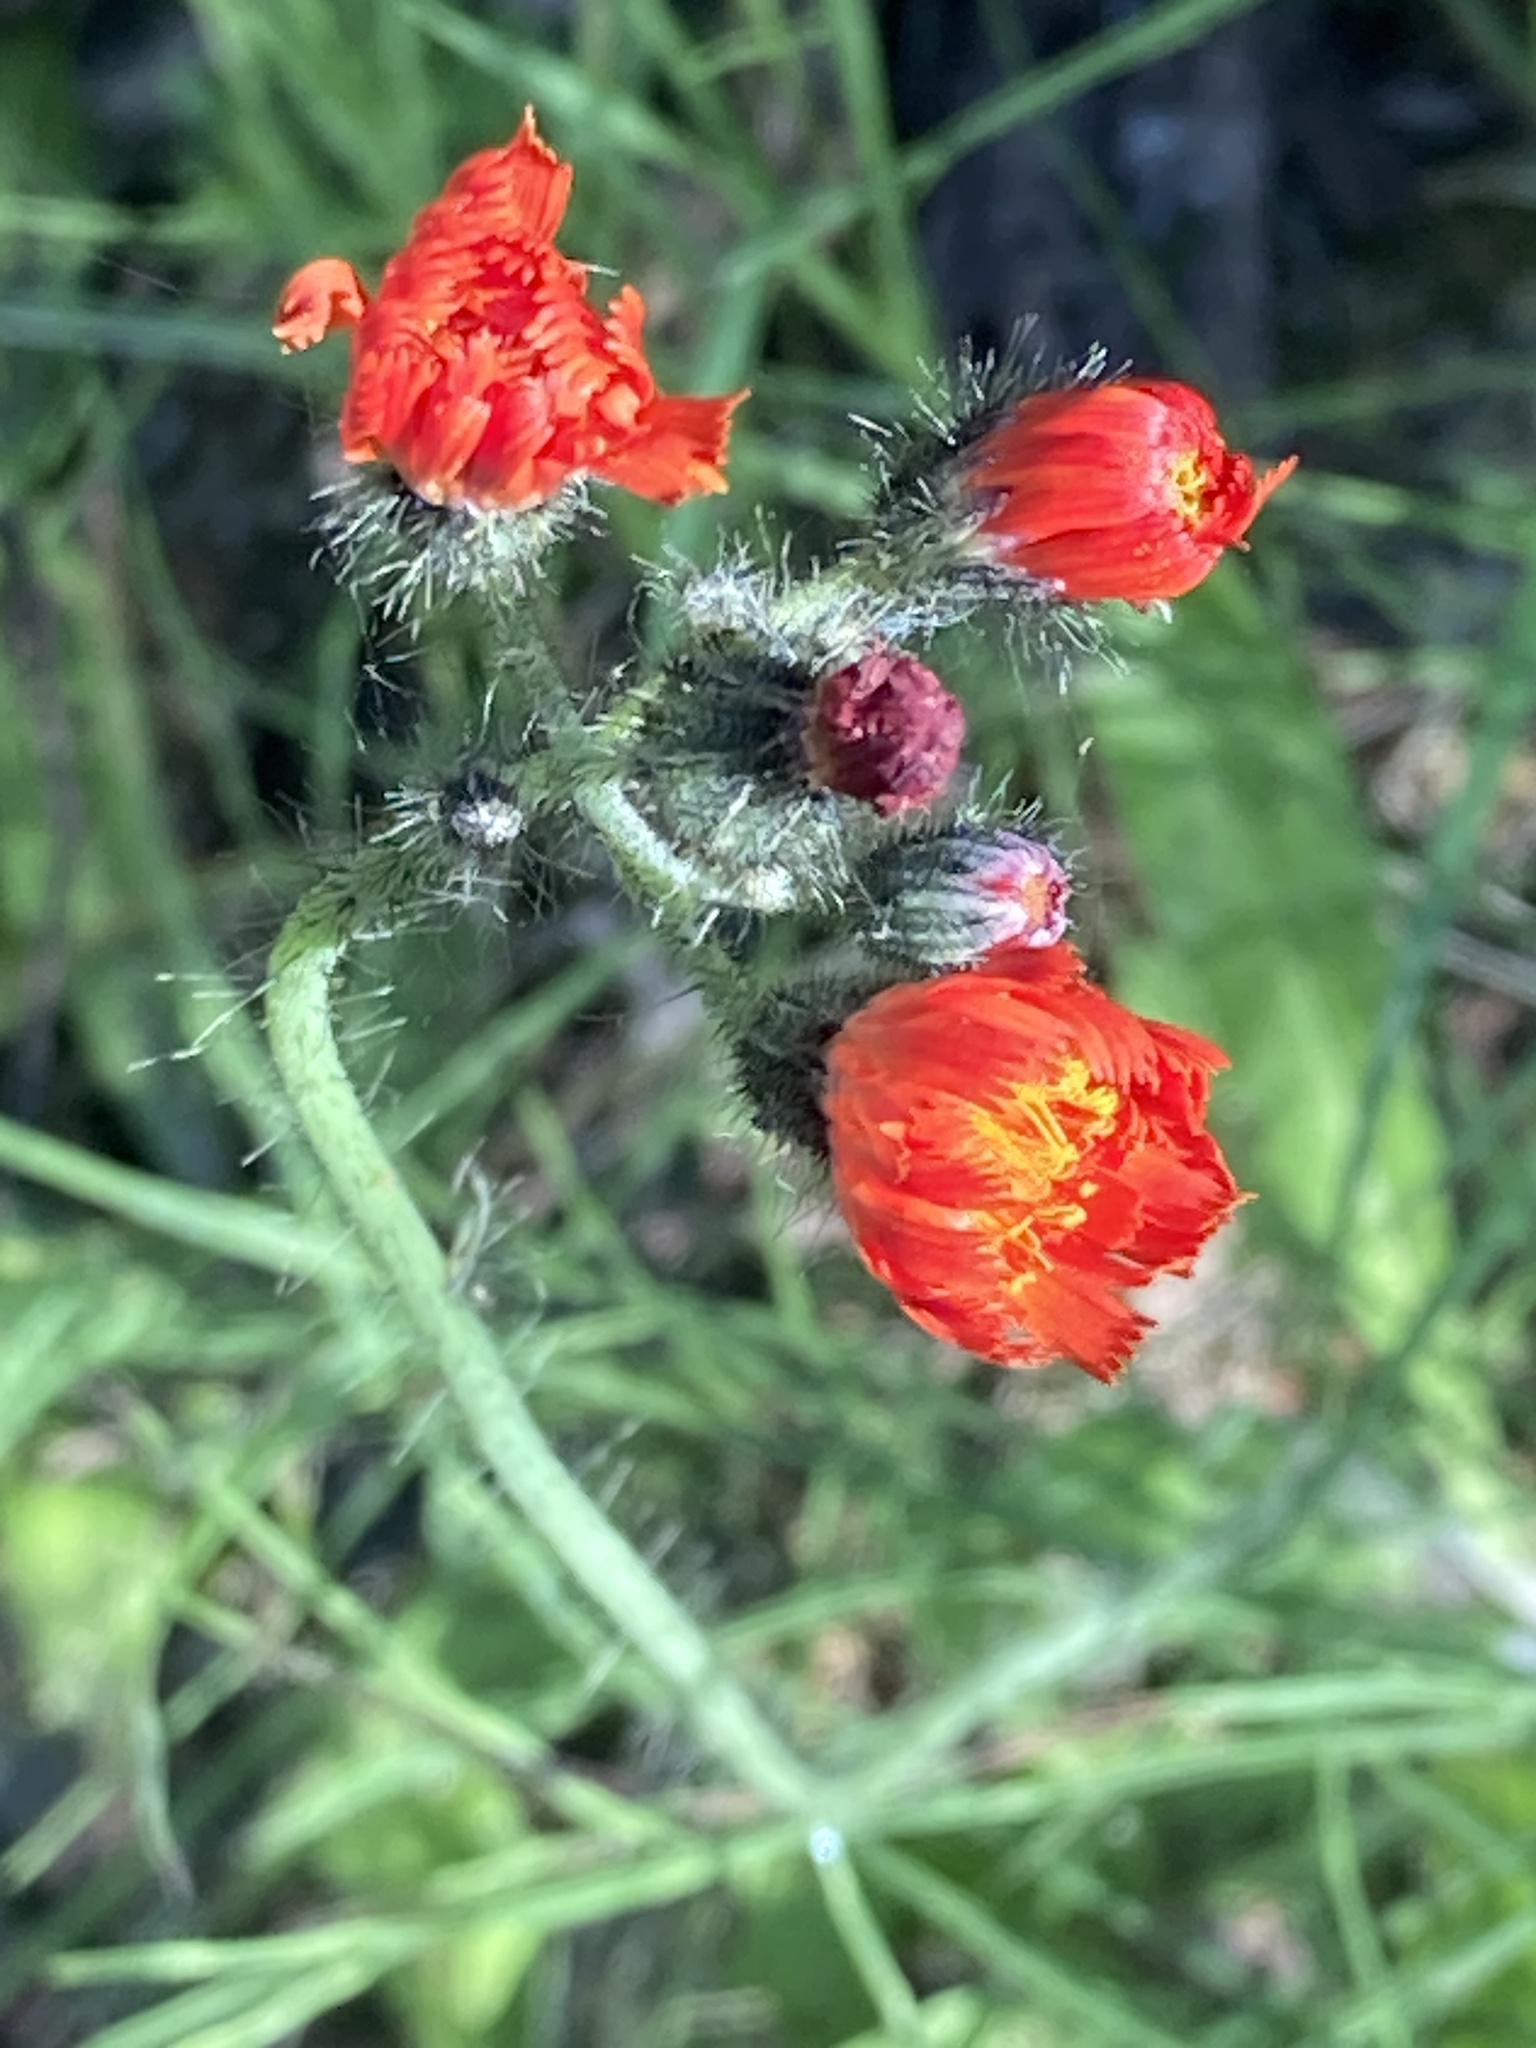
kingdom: Plantae
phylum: Tracheophyta
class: Magnoliopsida
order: Asterales
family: Asteraceae
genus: Pilosella
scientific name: Pilosella aurantiaca
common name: Fox-and-cubs
